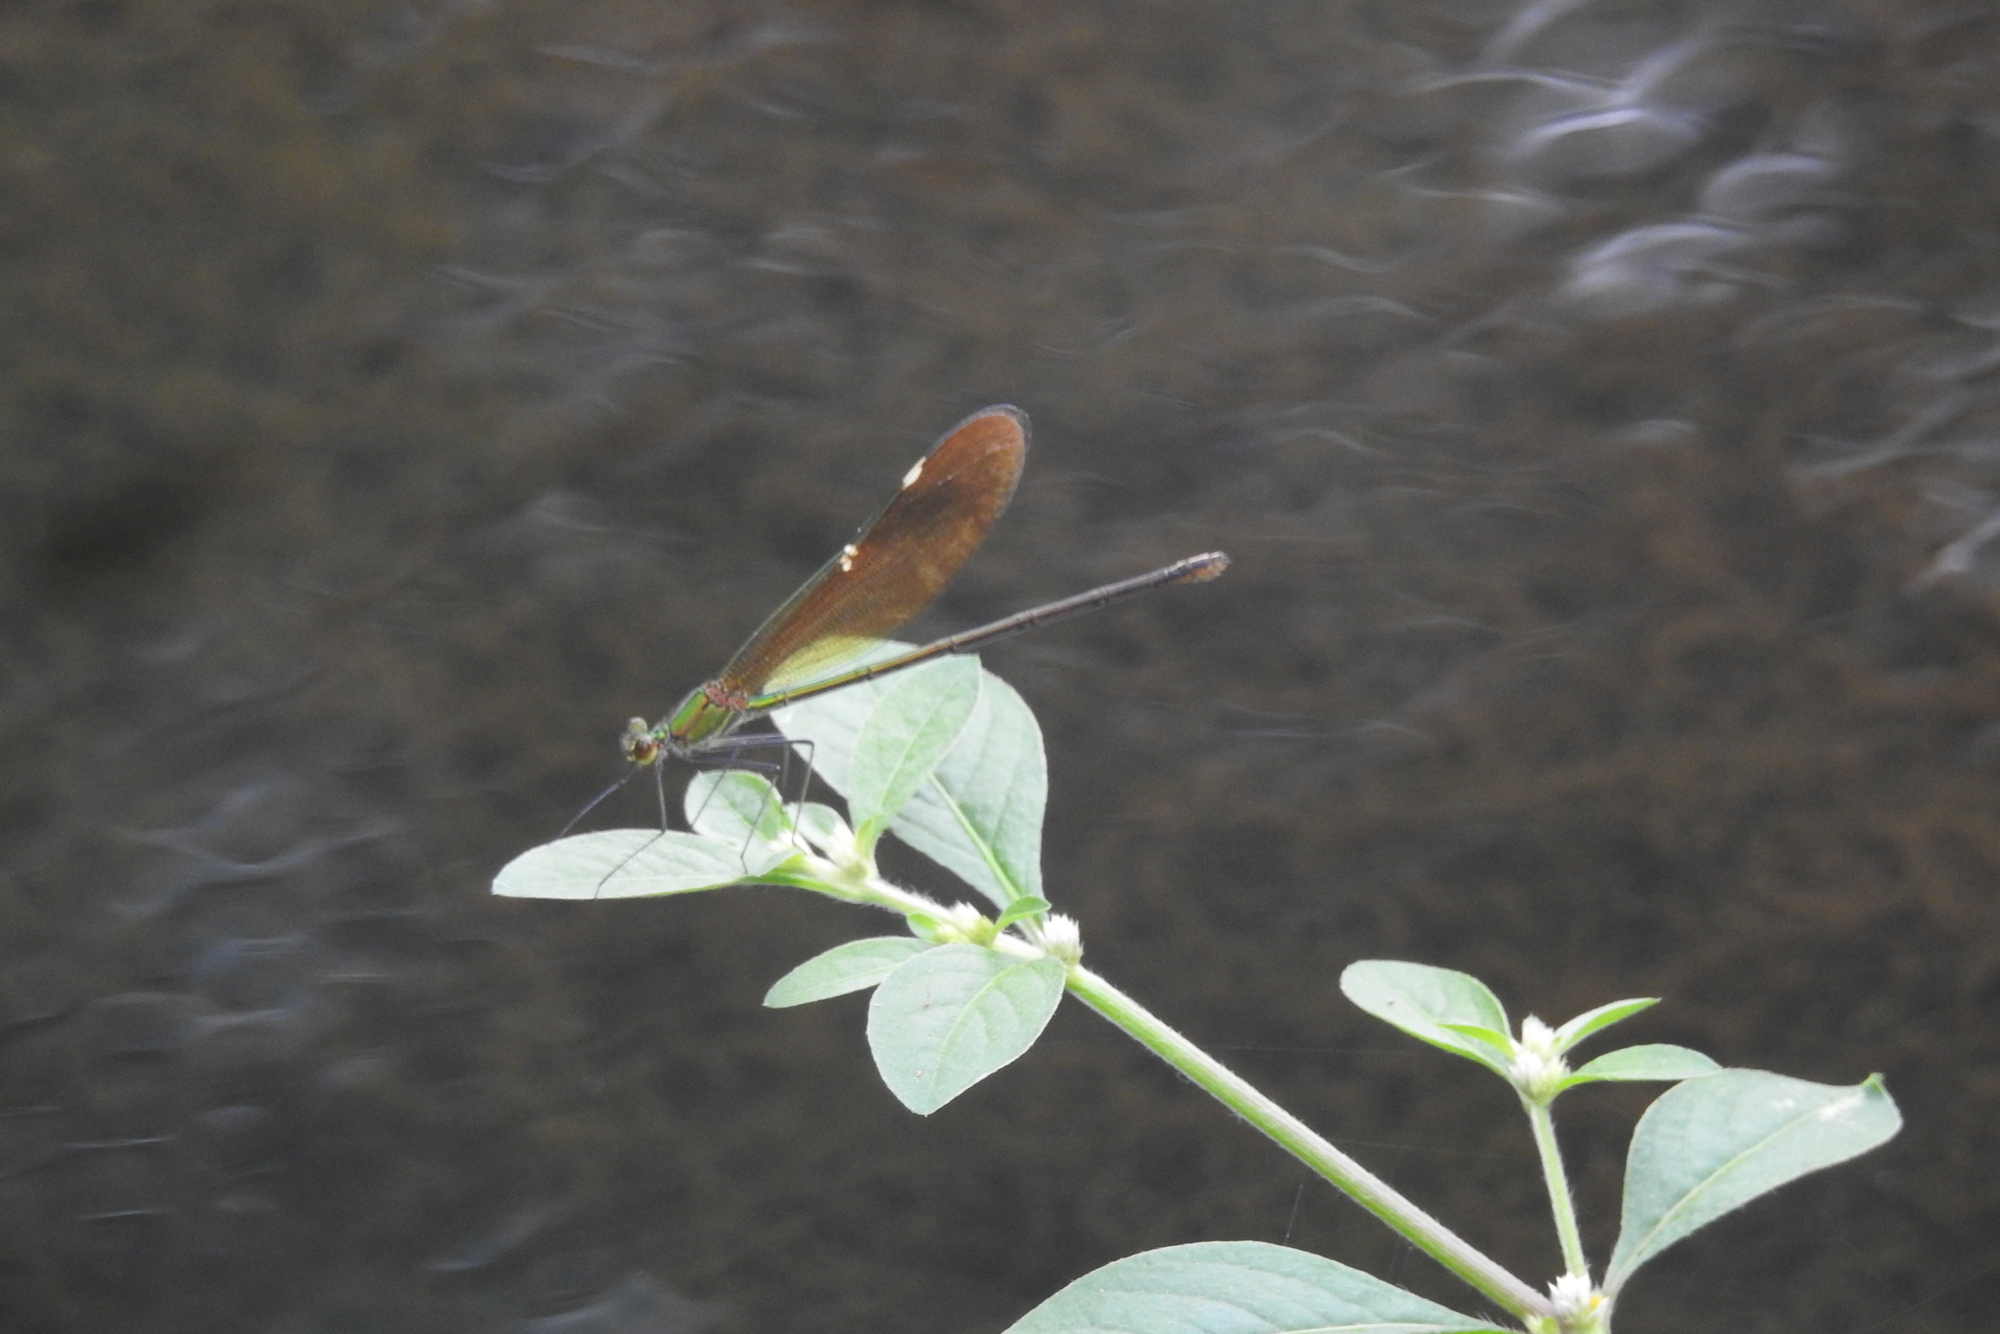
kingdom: Animalia
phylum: Arthropoda
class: Insecta
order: Odonata
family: Calopterygidae
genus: Neurobasis
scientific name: Neurobasis chinensis
